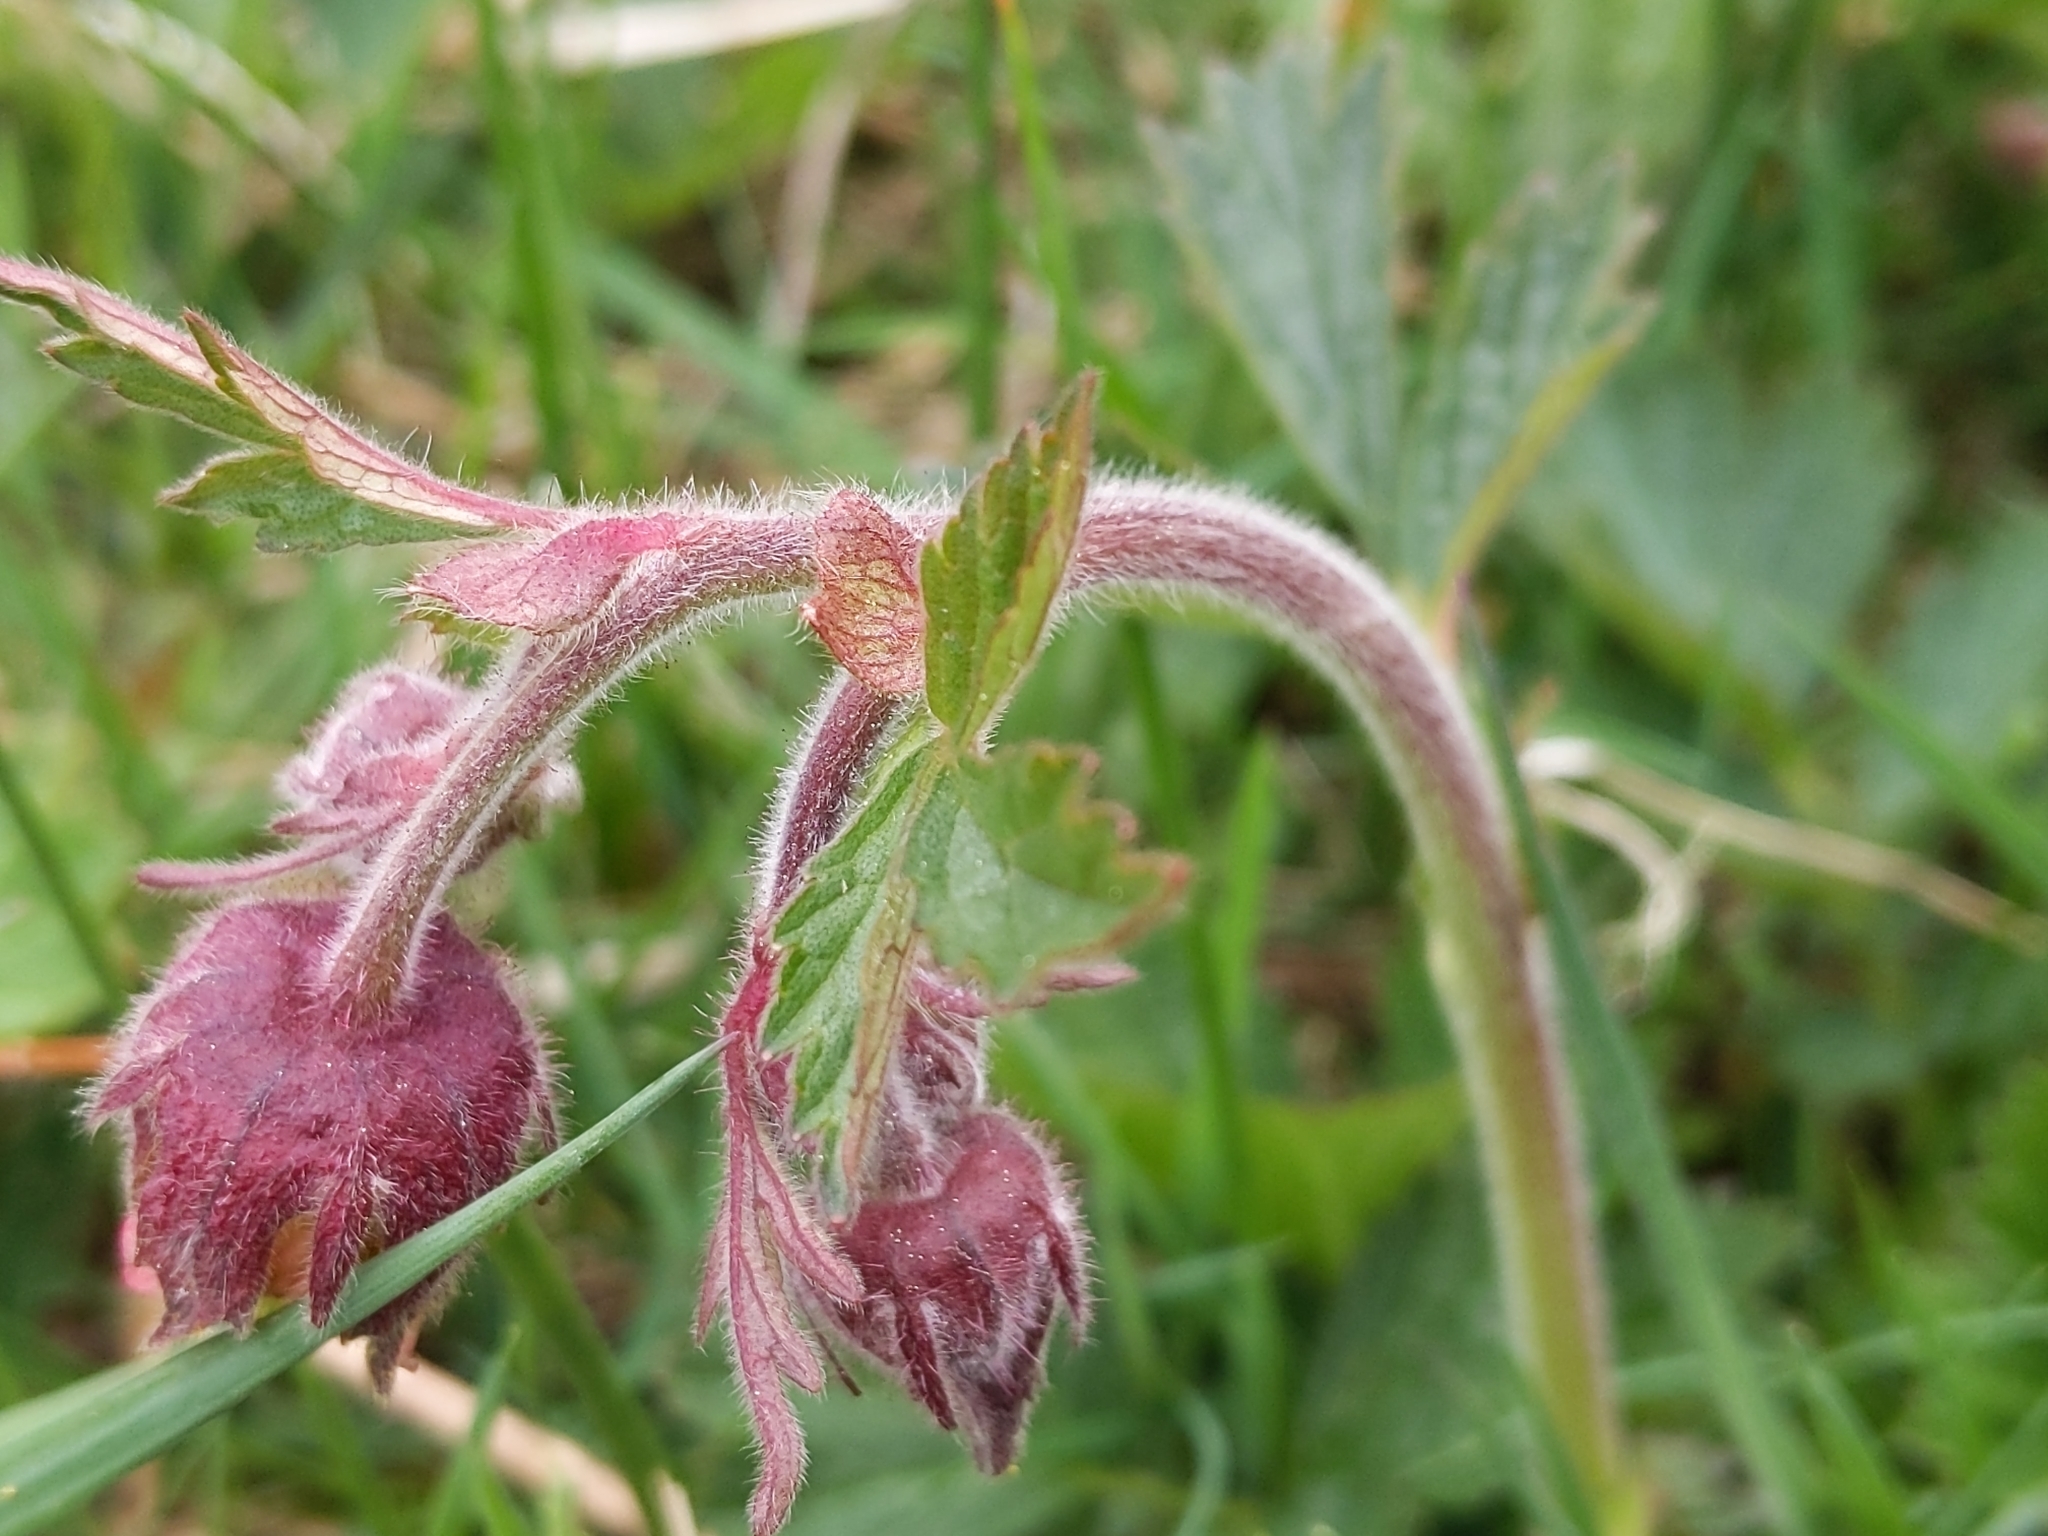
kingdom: Plantae
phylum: Tracheophyta
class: Magnoliopsida
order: Rosales
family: Rosaceae
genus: Geum
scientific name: Geum rivale
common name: Water avens
